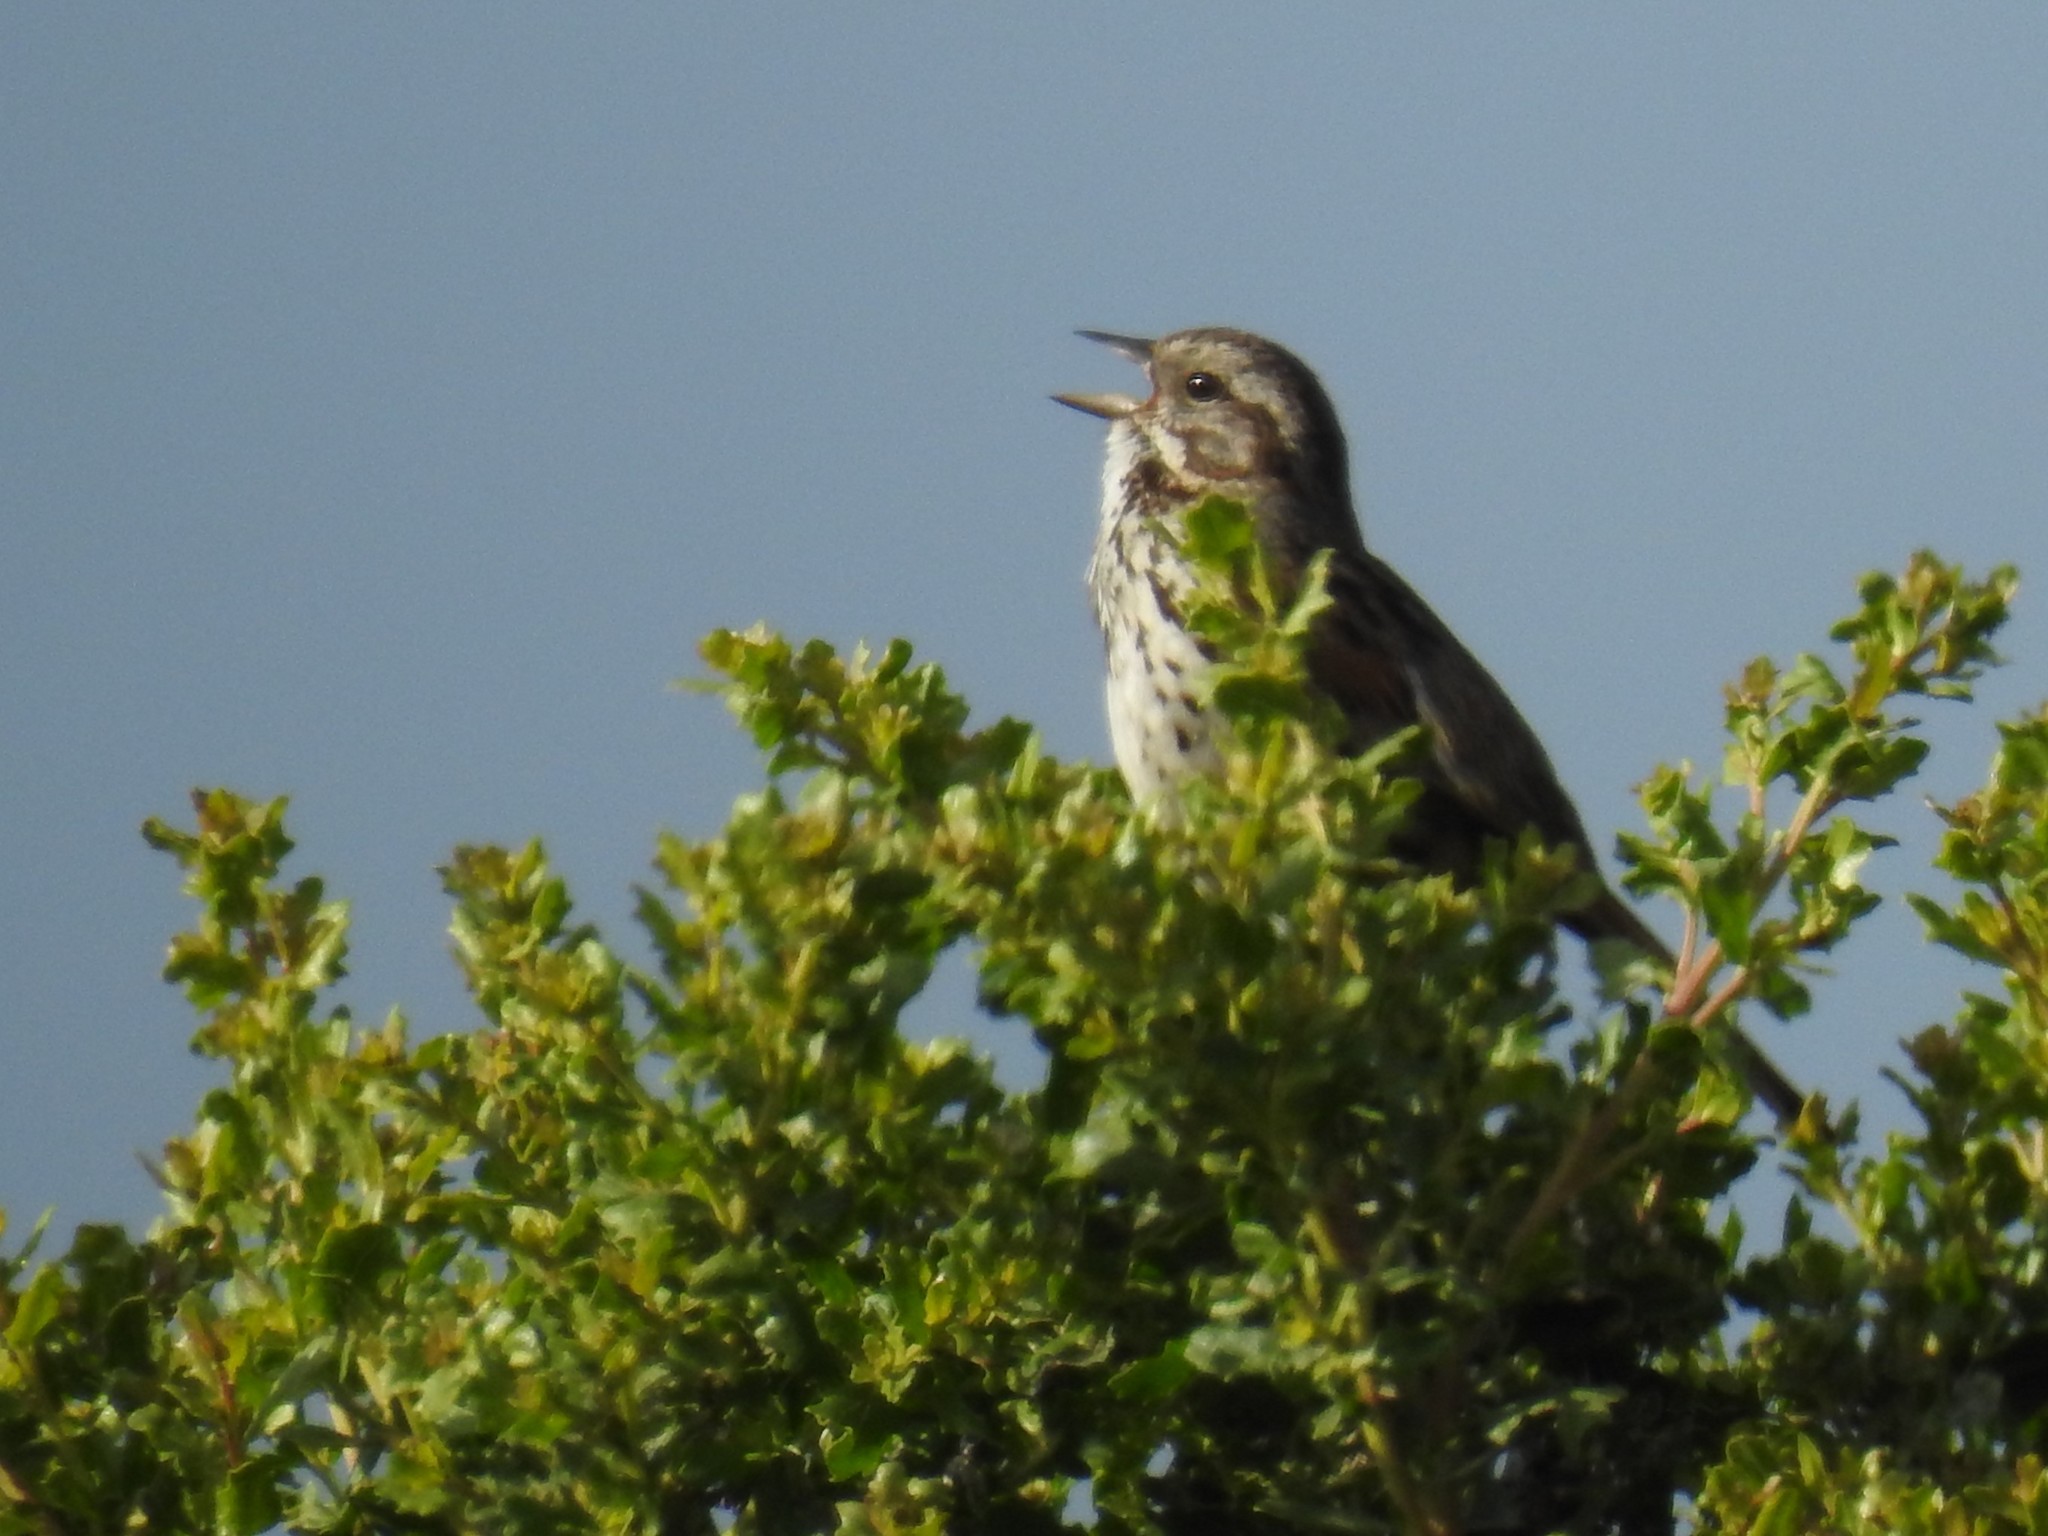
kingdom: Animalia
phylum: Chordata
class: Aves
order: Passeriformes
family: Passerellidae
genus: Melospiza
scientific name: Melospiza melodia
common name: Song sparrow
